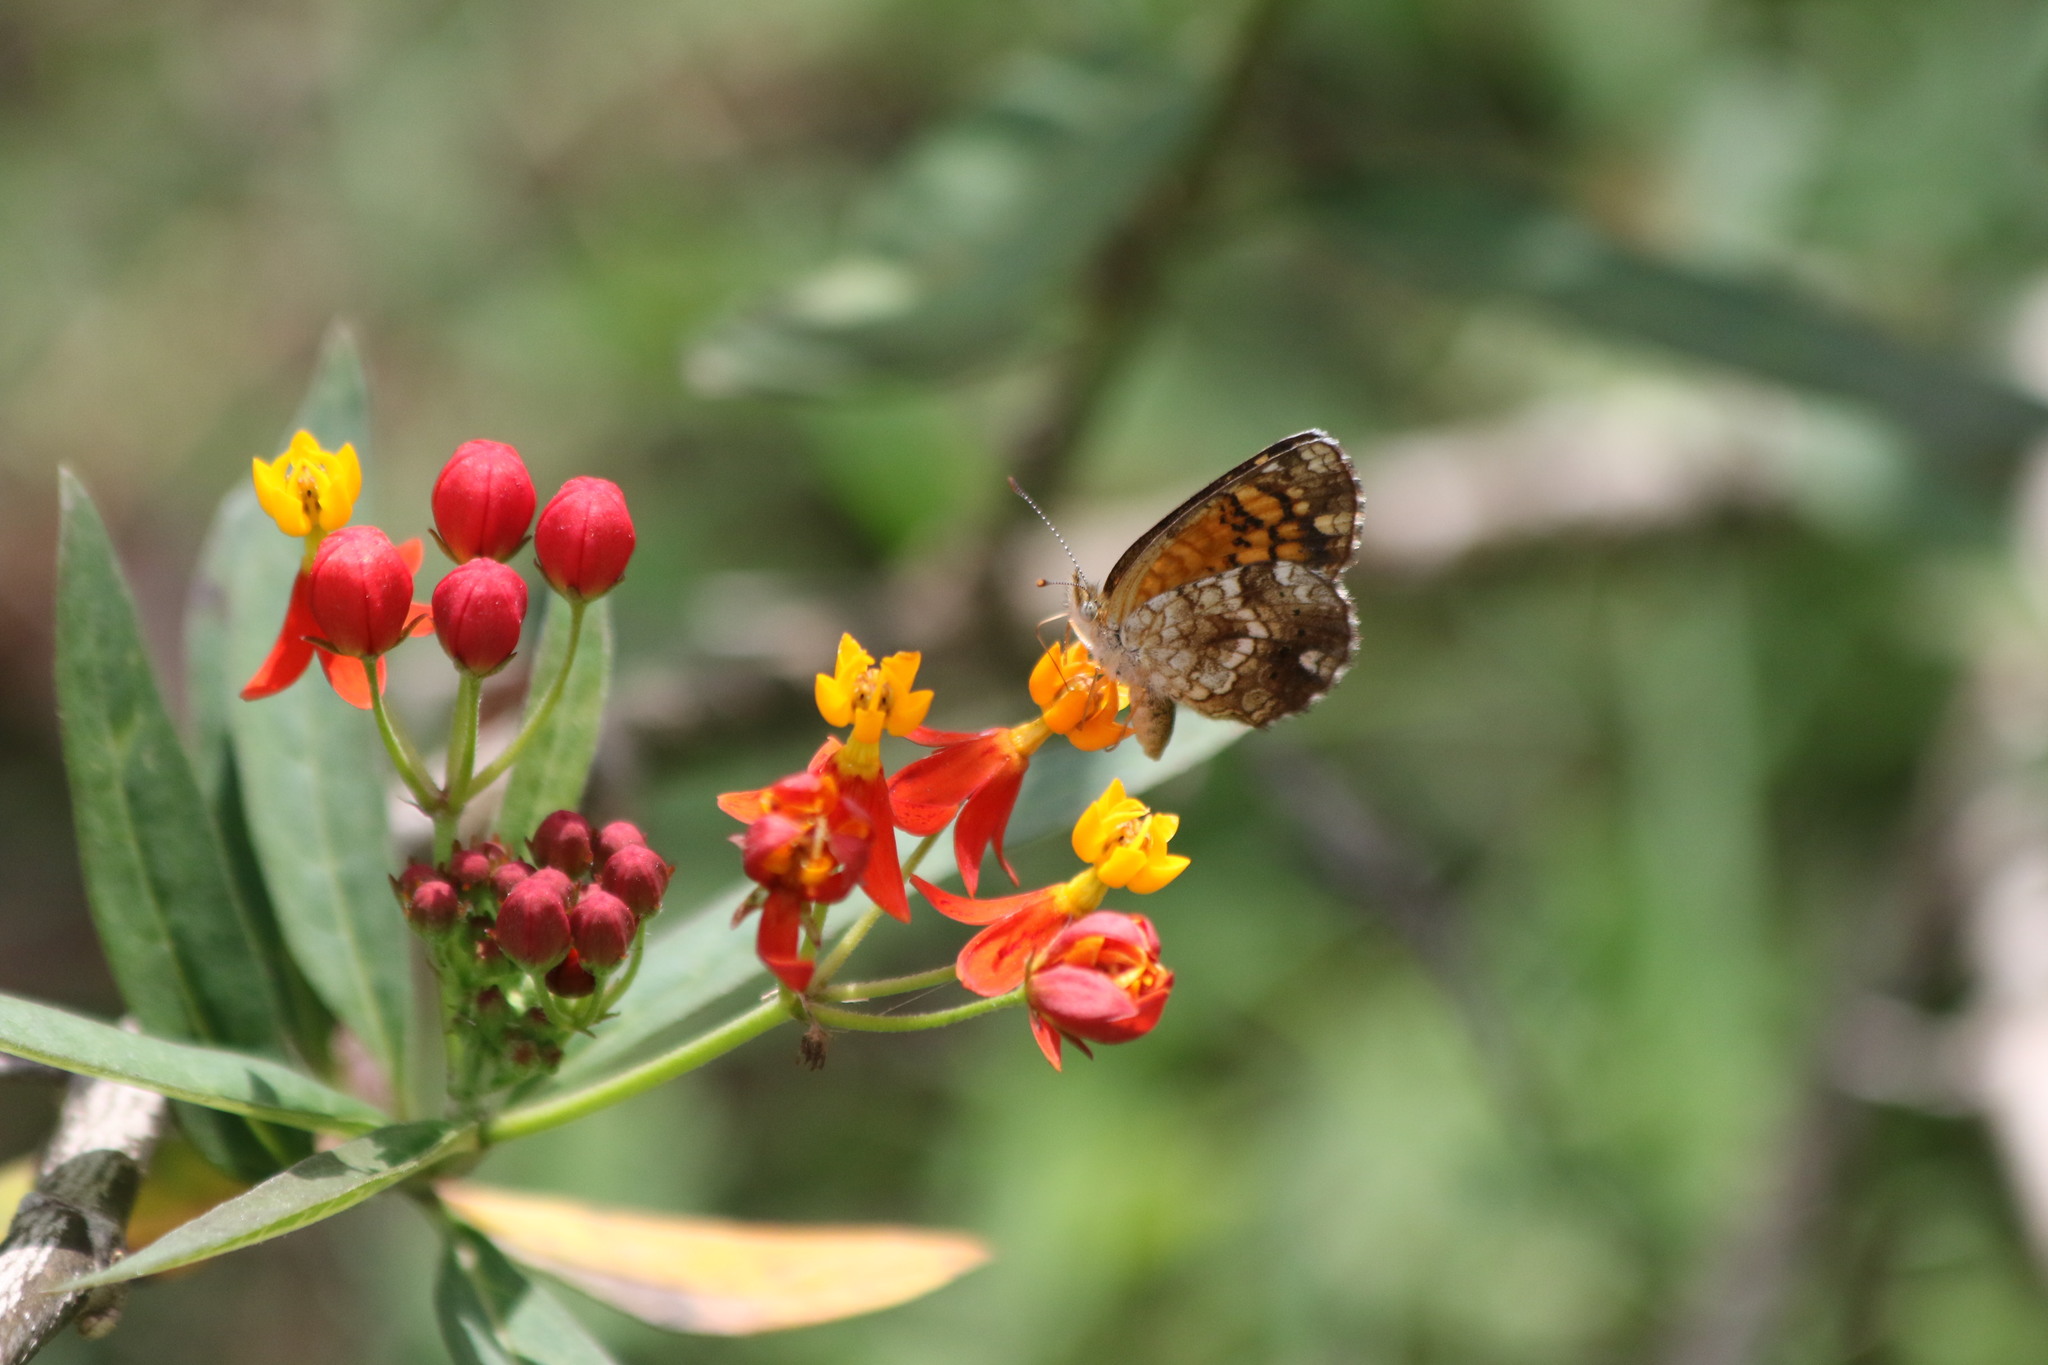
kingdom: Animalia
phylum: Arthropoda
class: Insecta
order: Lepidoptera
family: Nymphalidae
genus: Phyciodes
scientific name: Phyciodes vesta
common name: Vesta crescent
